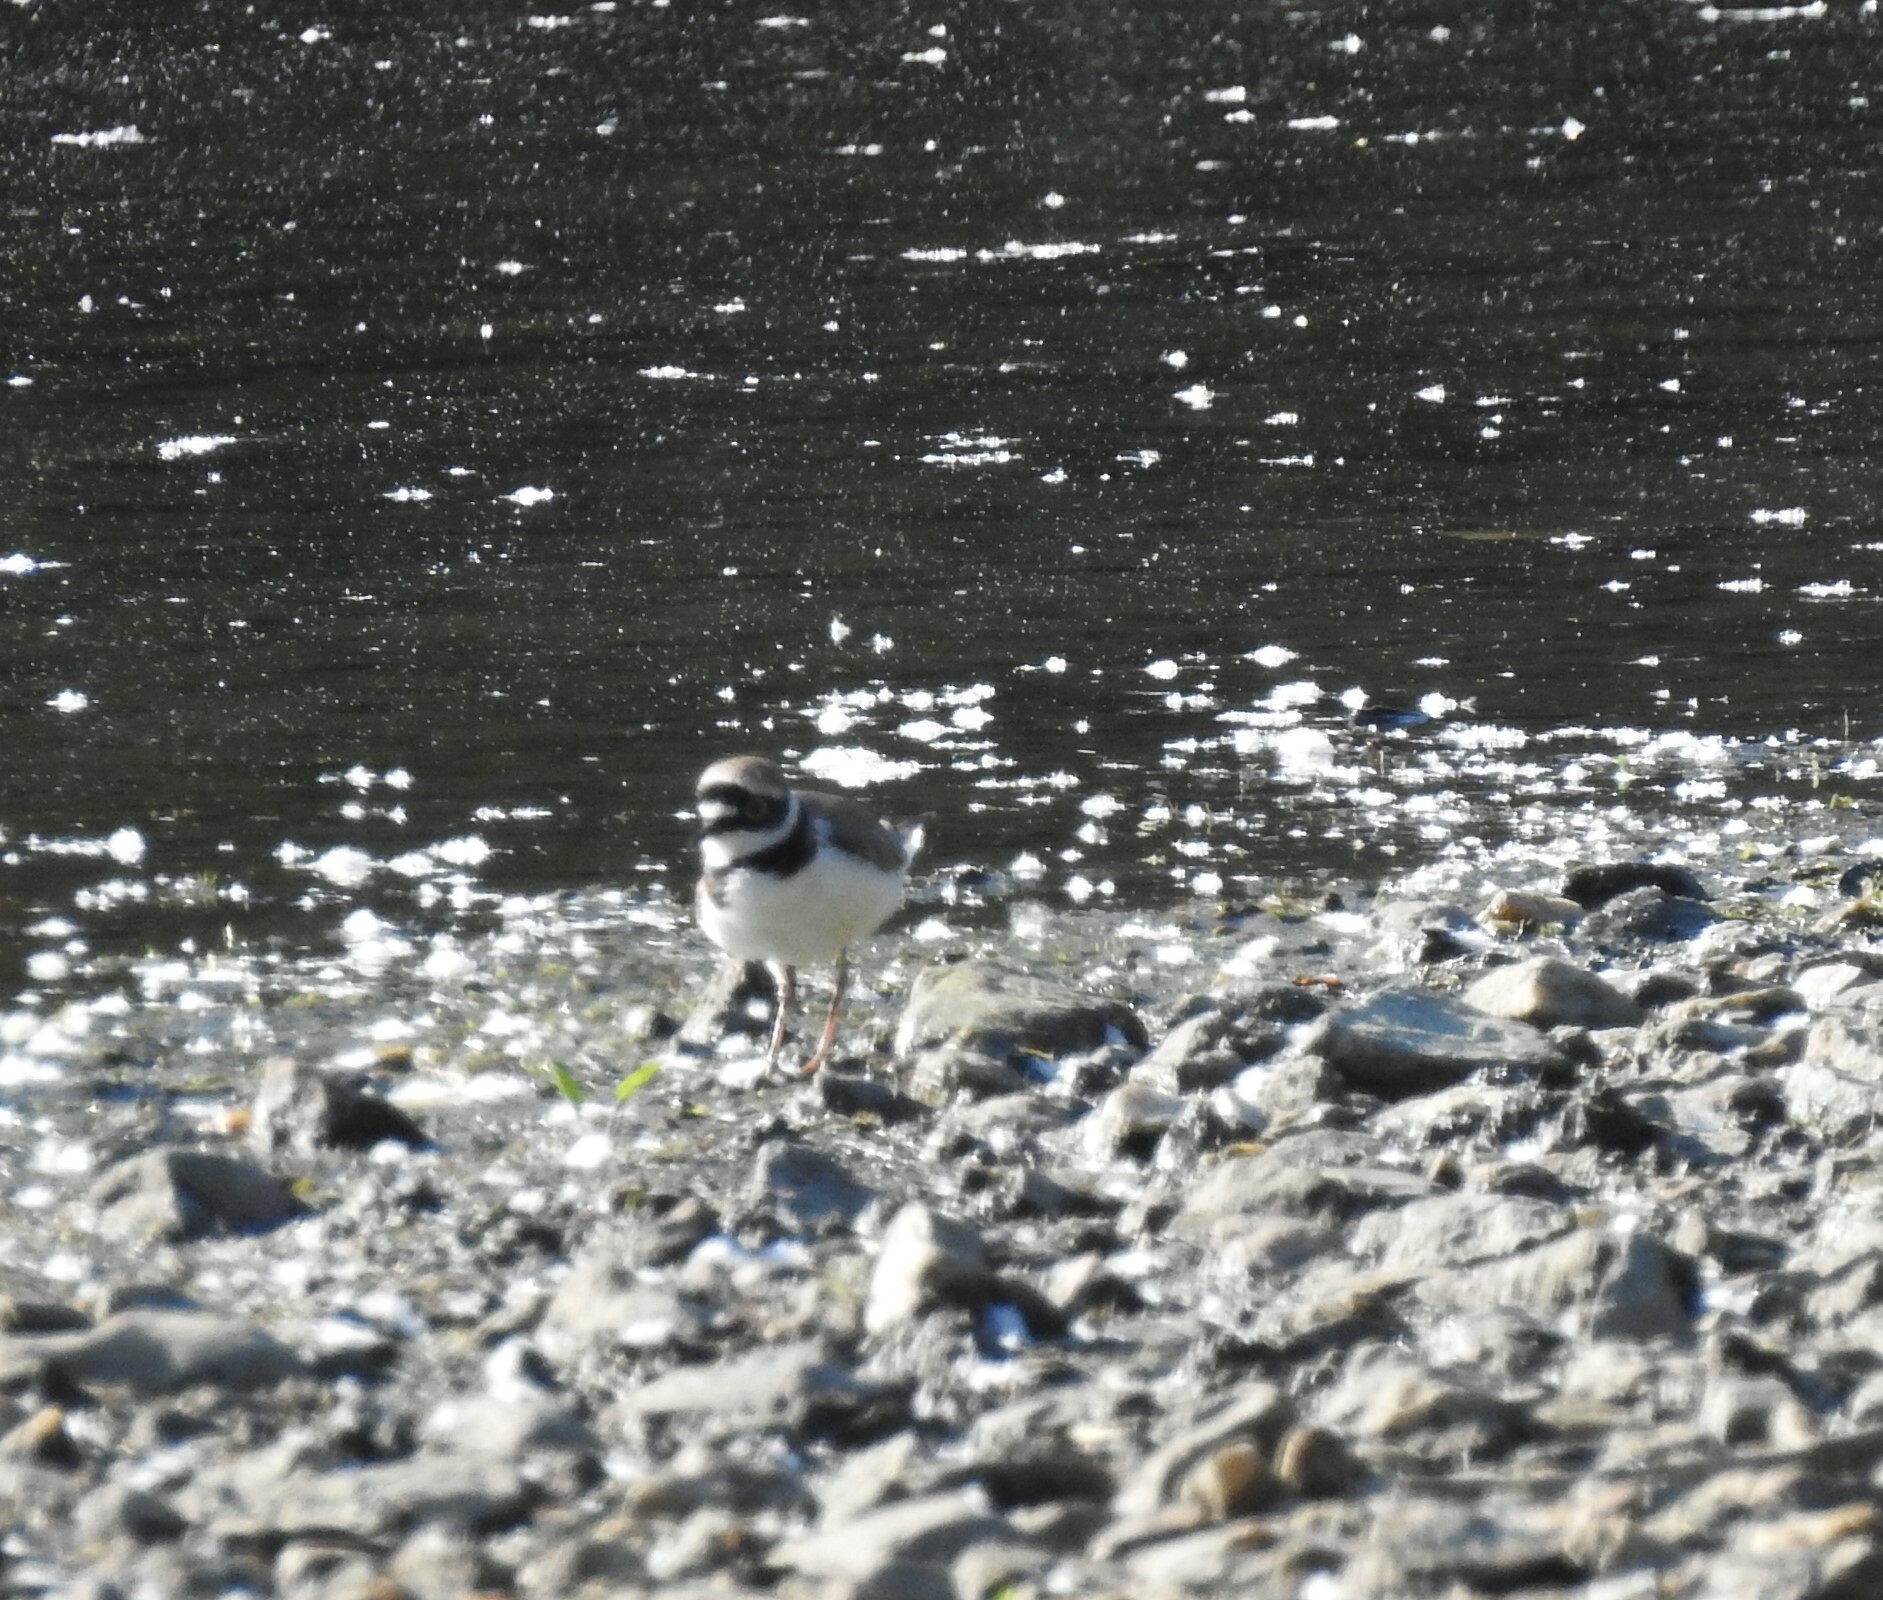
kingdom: Animalia
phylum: Chordata
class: Aves
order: Charadriiformes
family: Charadriidae
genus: Charadrius
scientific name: Charadrius dubius
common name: Little ringed plover
